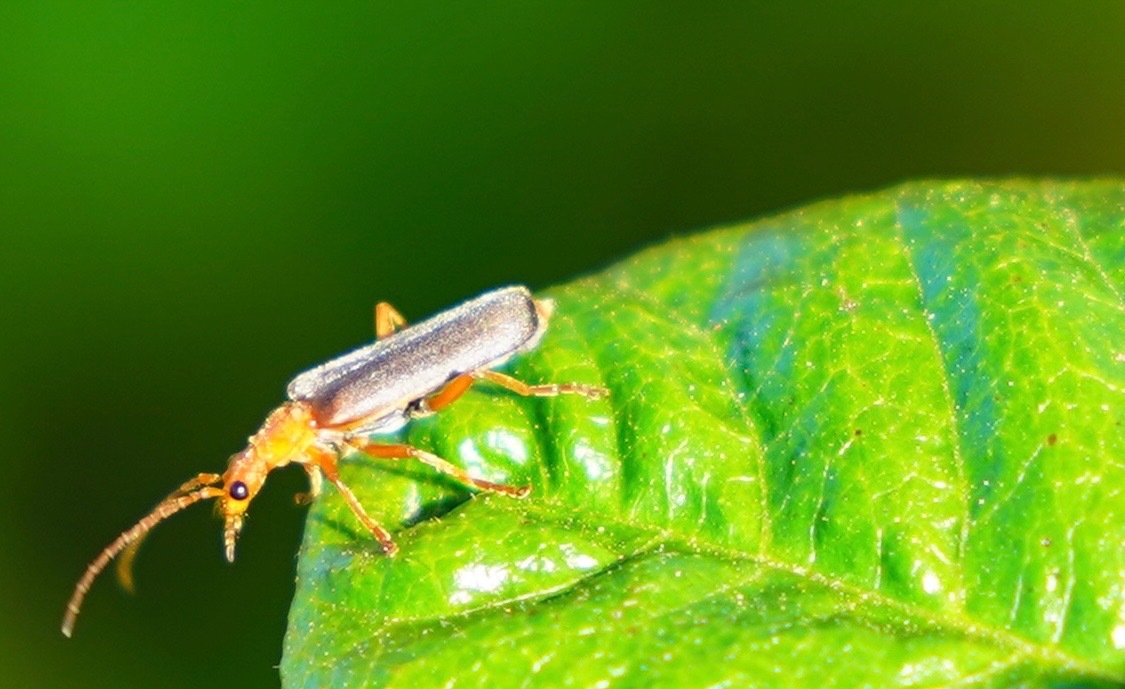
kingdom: Animalia
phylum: Arthropoda
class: Insecta
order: Coleoptera
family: Cantharidae
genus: Podabrus
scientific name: Podabrus pruinosus
